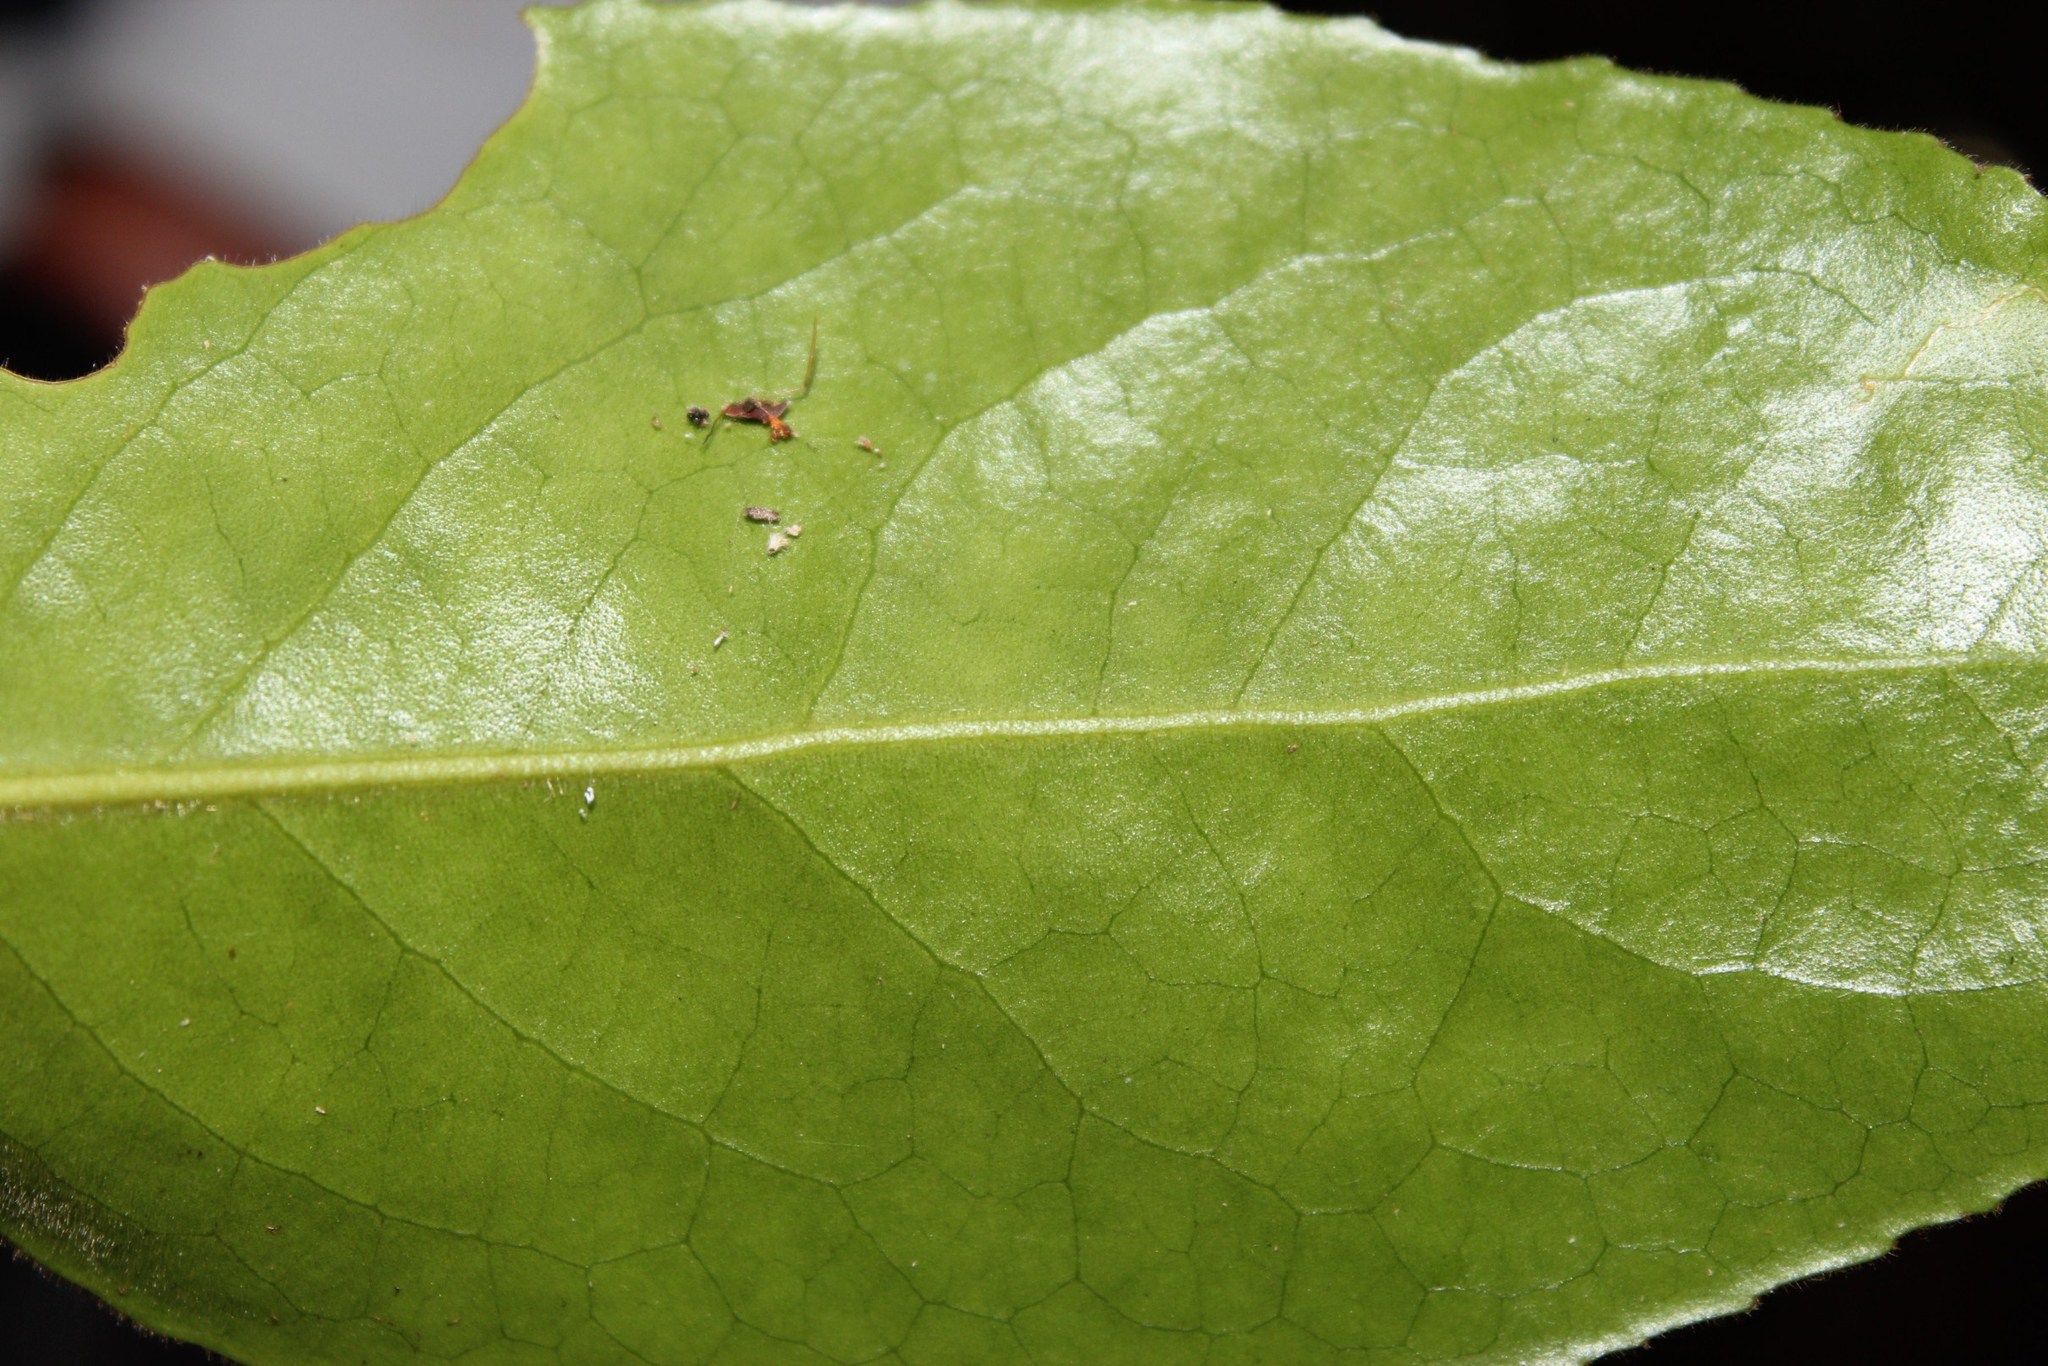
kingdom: Plantae
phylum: Tracheophyta
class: Magnoliopsida
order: Celastrales
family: Celastraceae
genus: Gymnosporia
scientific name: Gymnosporia peduncularis
